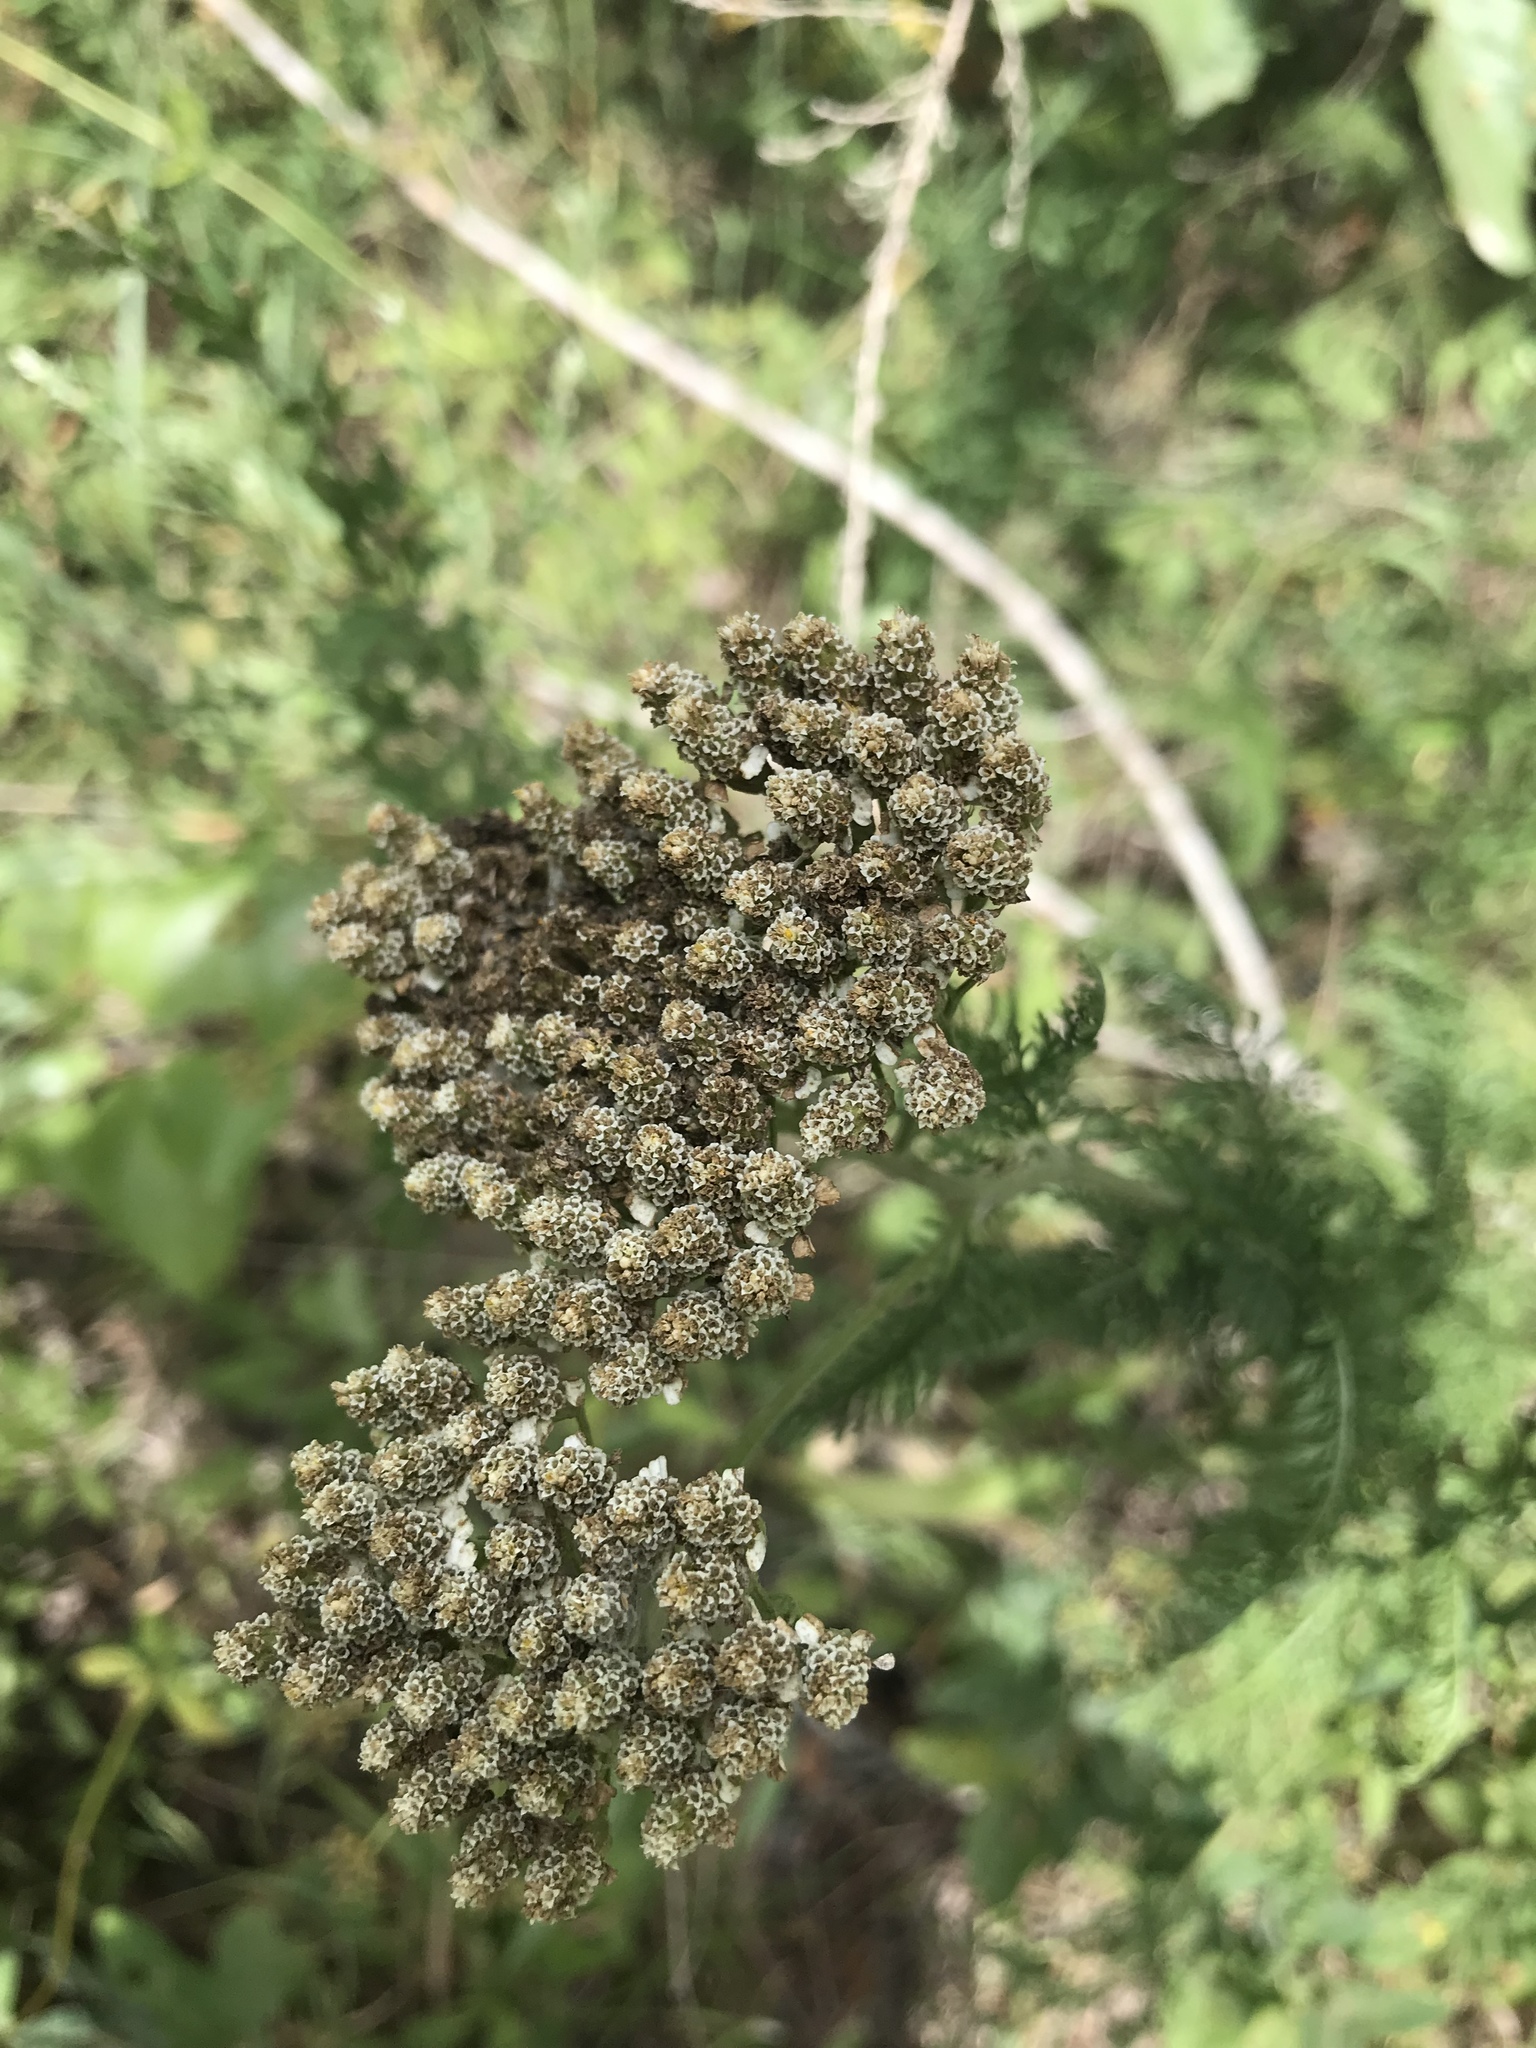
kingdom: Plantae
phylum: Tracheophyta
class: Magnoliopsida
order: Asterales
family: Asteraceae
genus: Achillea
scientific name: Achillea millefolium
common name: Yarrow
